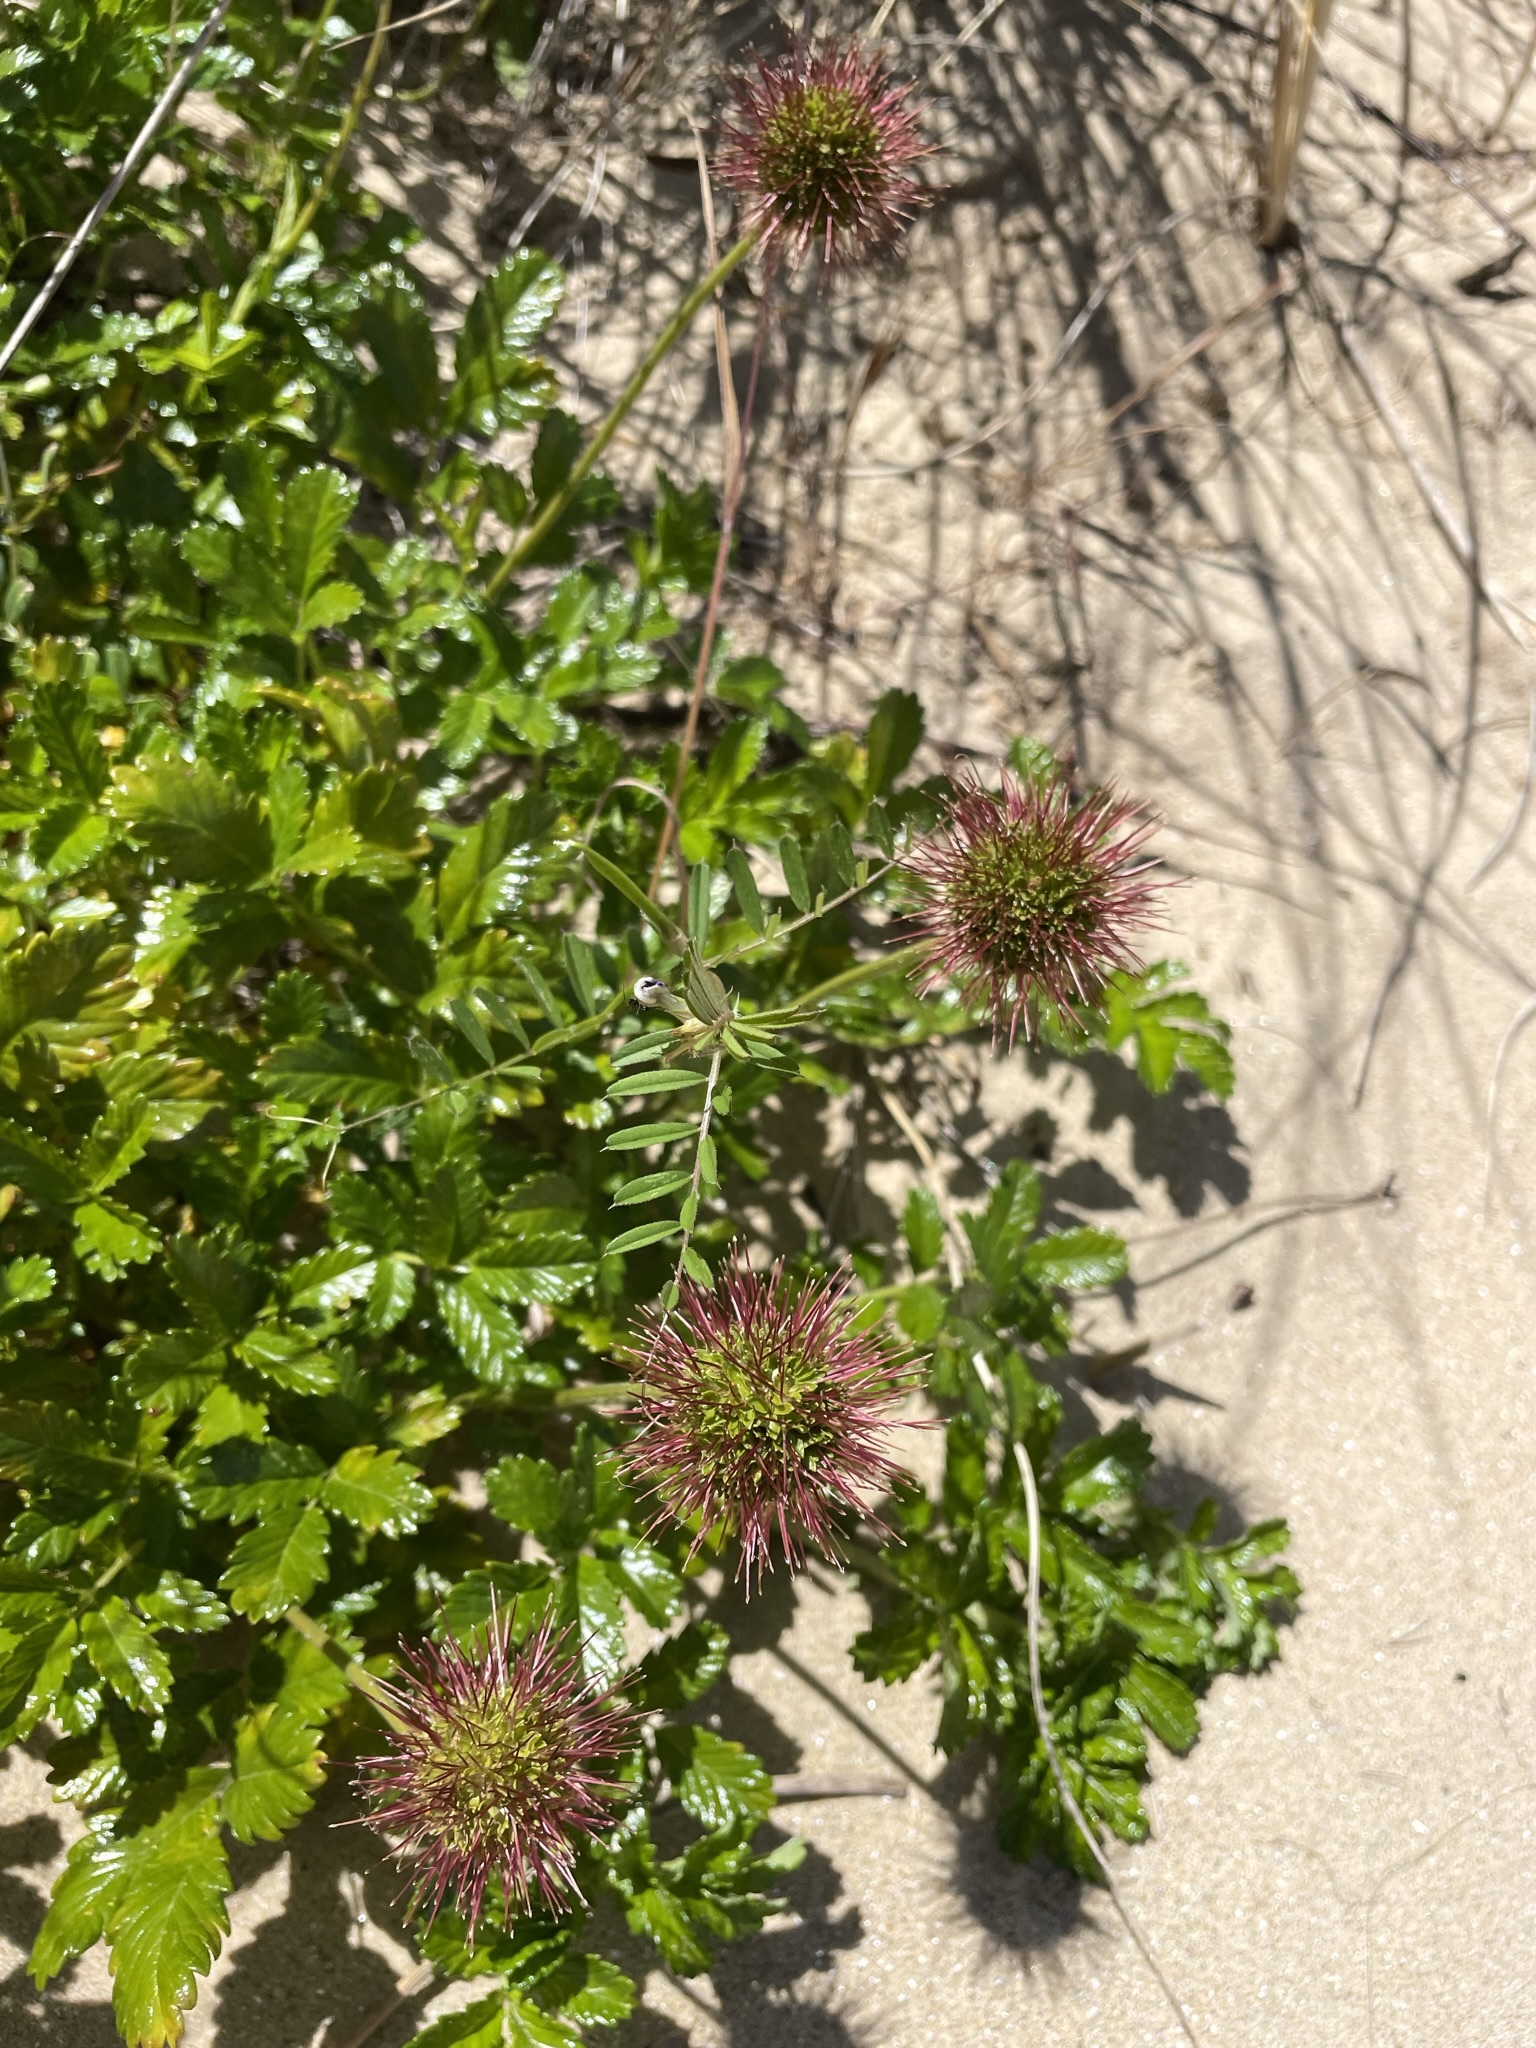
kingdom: Plantae
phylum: Tracheophyta
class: Magnoliopsida
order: Rosales
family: Rosaceae
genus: Acaena
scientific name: Acaena novae-zelandiae
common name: Pirri-pirri-bur
